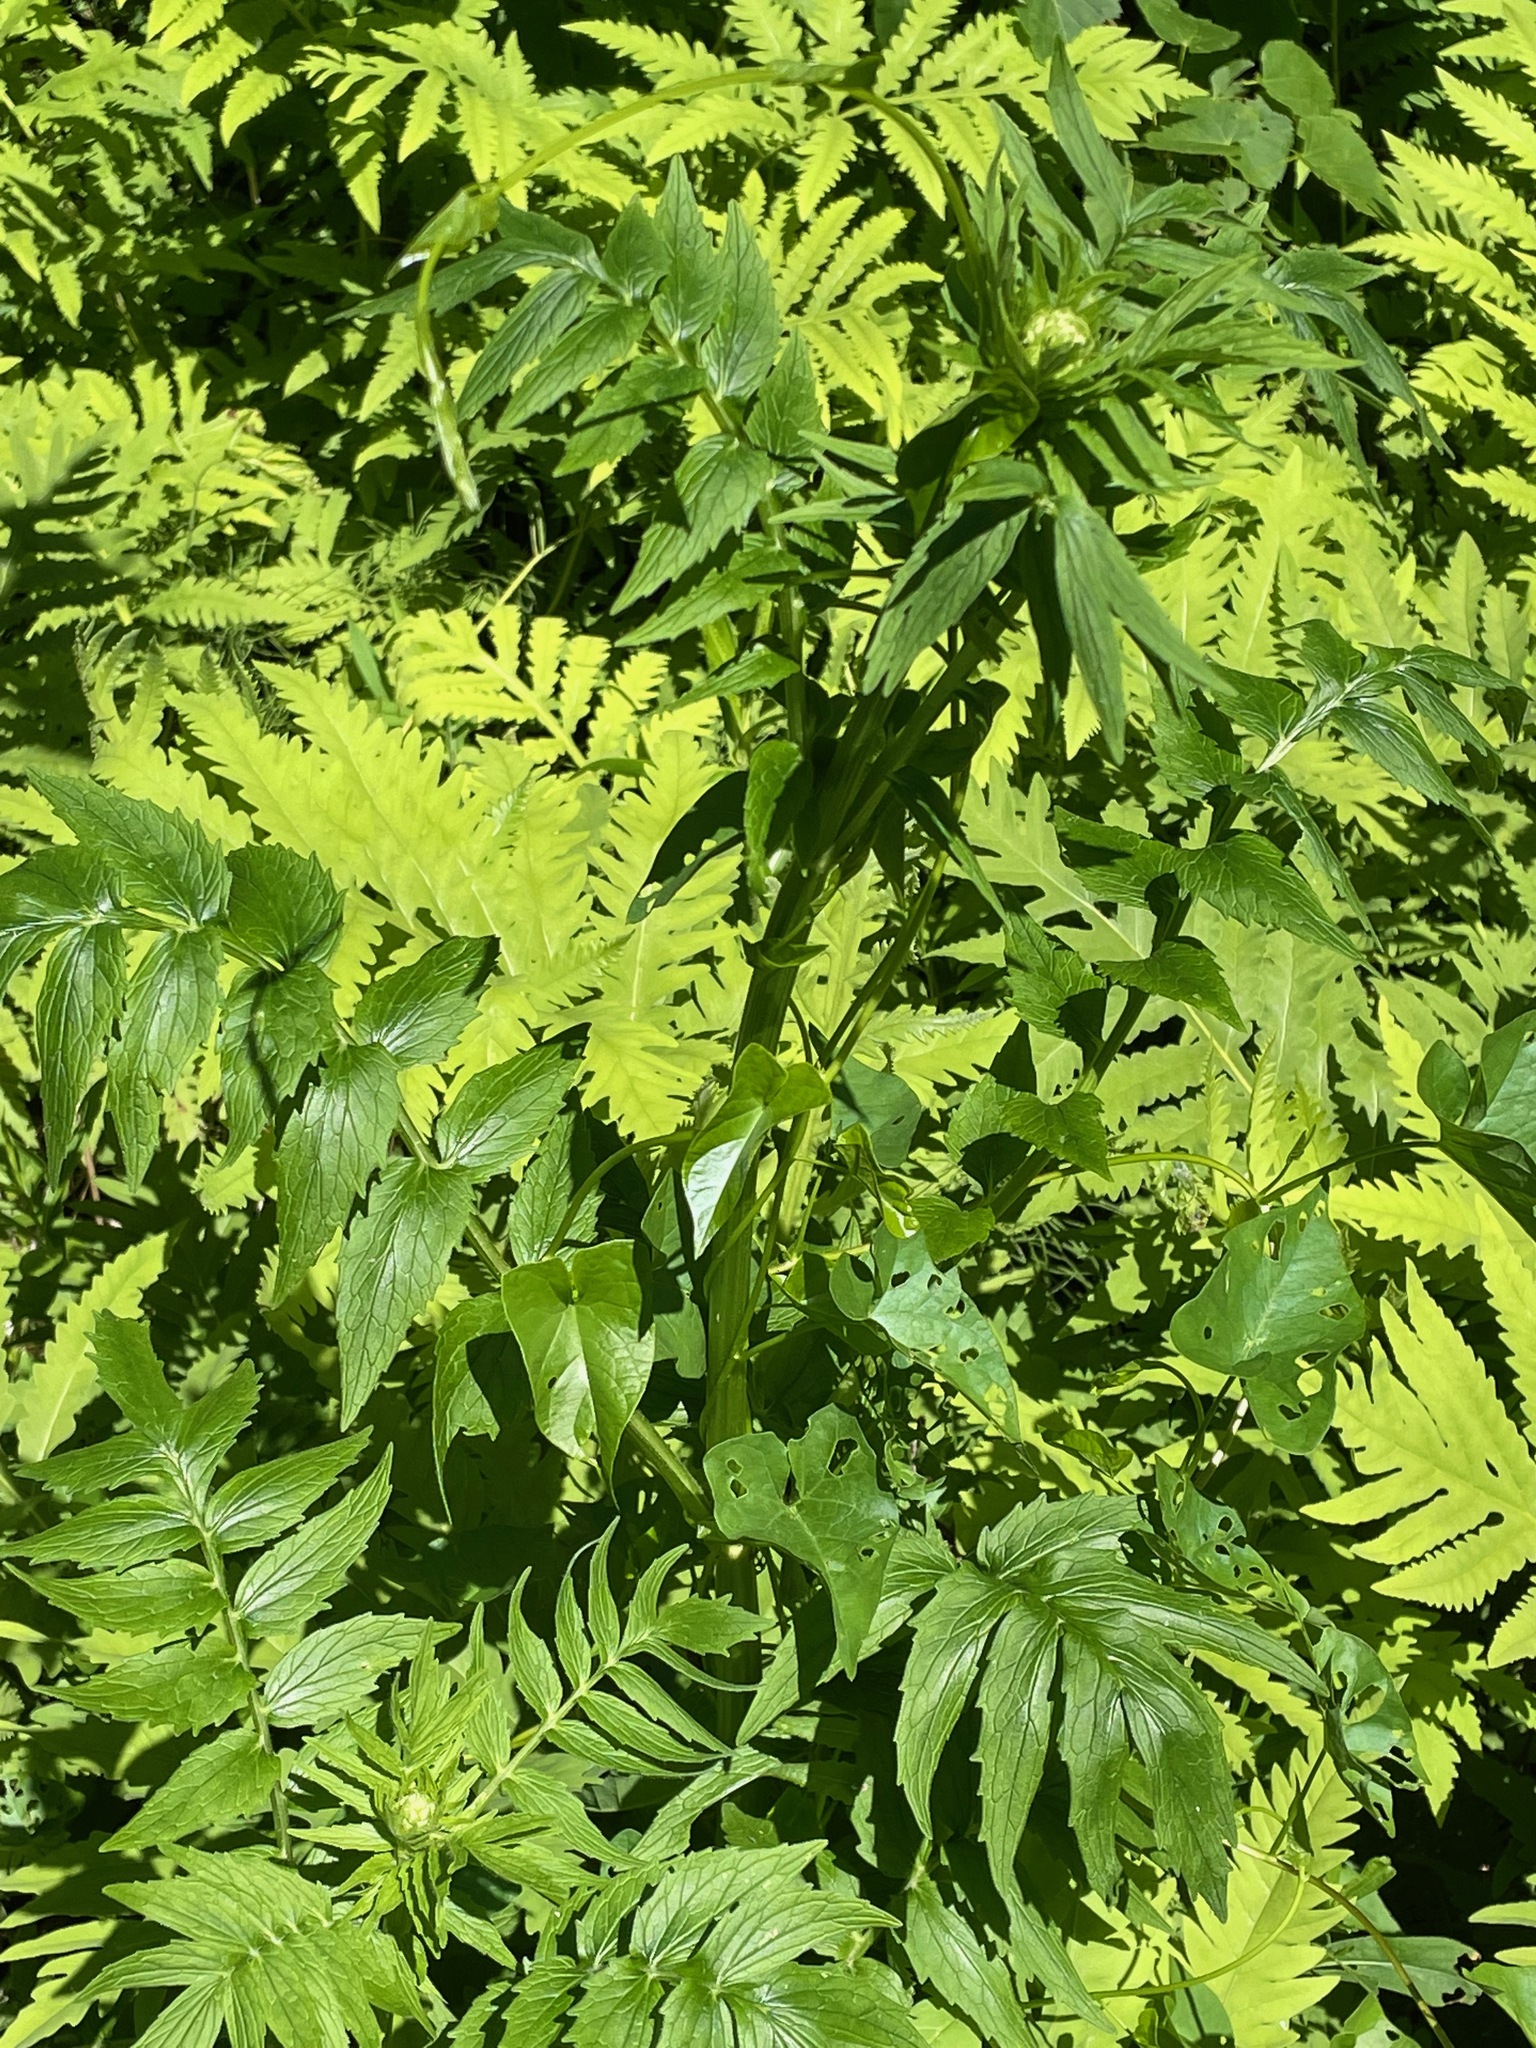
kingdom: Plantae
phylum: Tracheophyta
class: Magnoliopsida
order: Dipsacales
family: Caprifoliaceae
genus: Valeriana
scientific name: Valeriana officinalis
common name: Common valerian
